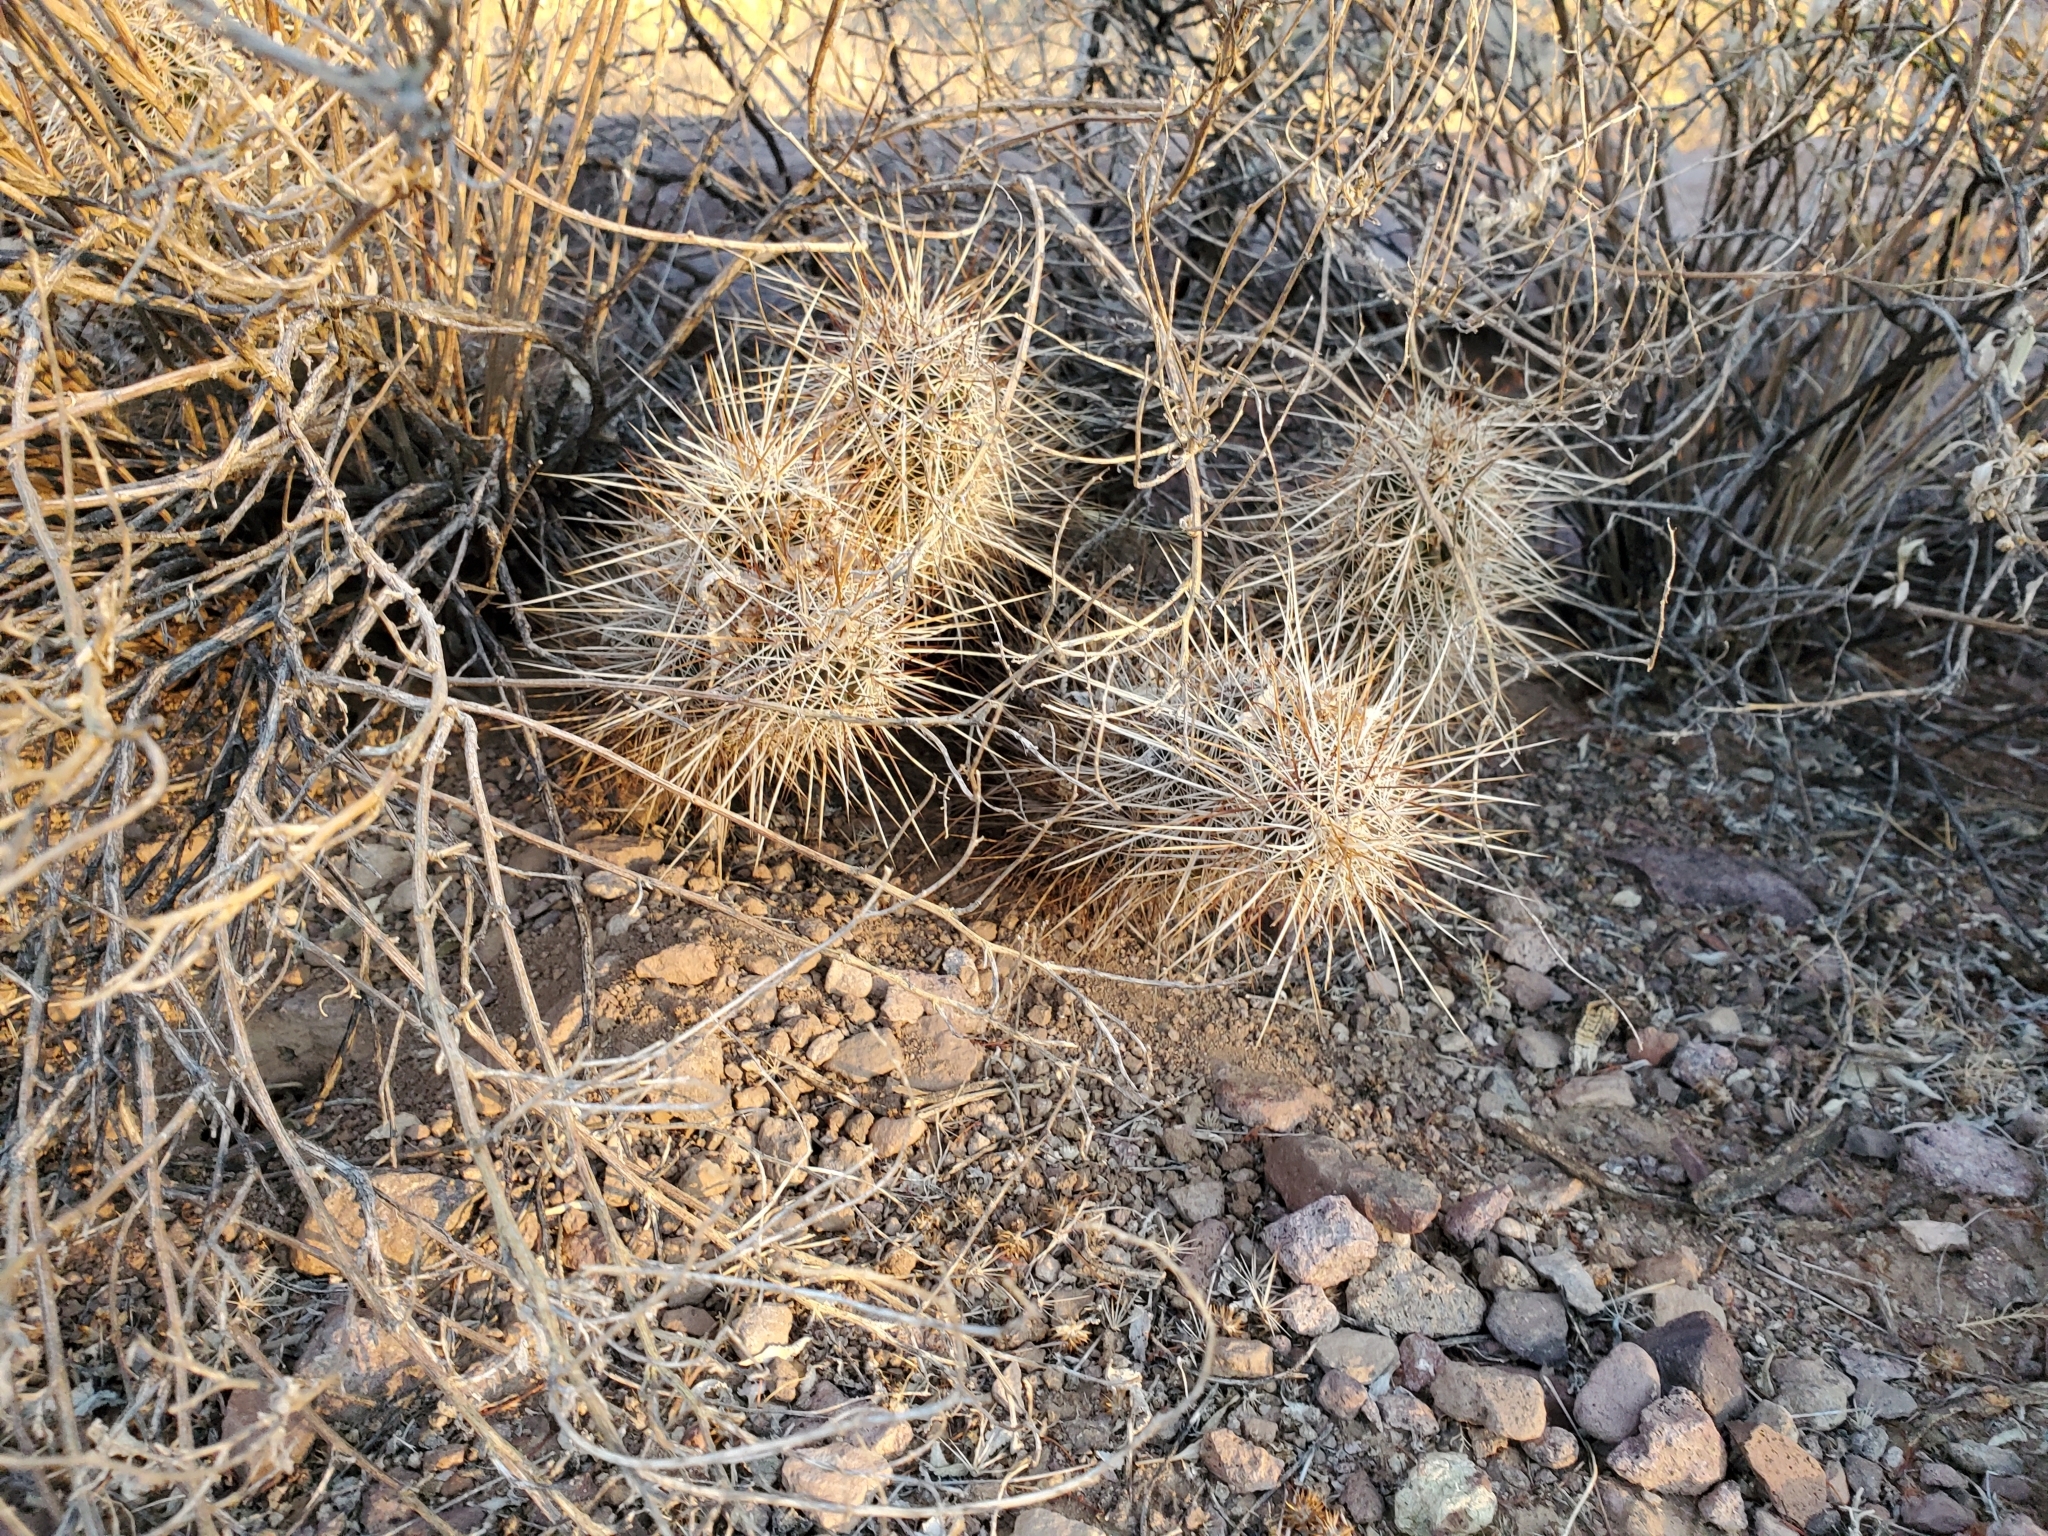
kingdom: Plantae
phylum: Tracheophyta
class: Magnoliopsida
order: Caryophyllales
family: Cactaceae
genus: Echinocereus
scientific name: Echinocereus engelmannii
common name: Engelmann's hedgehog cactus
